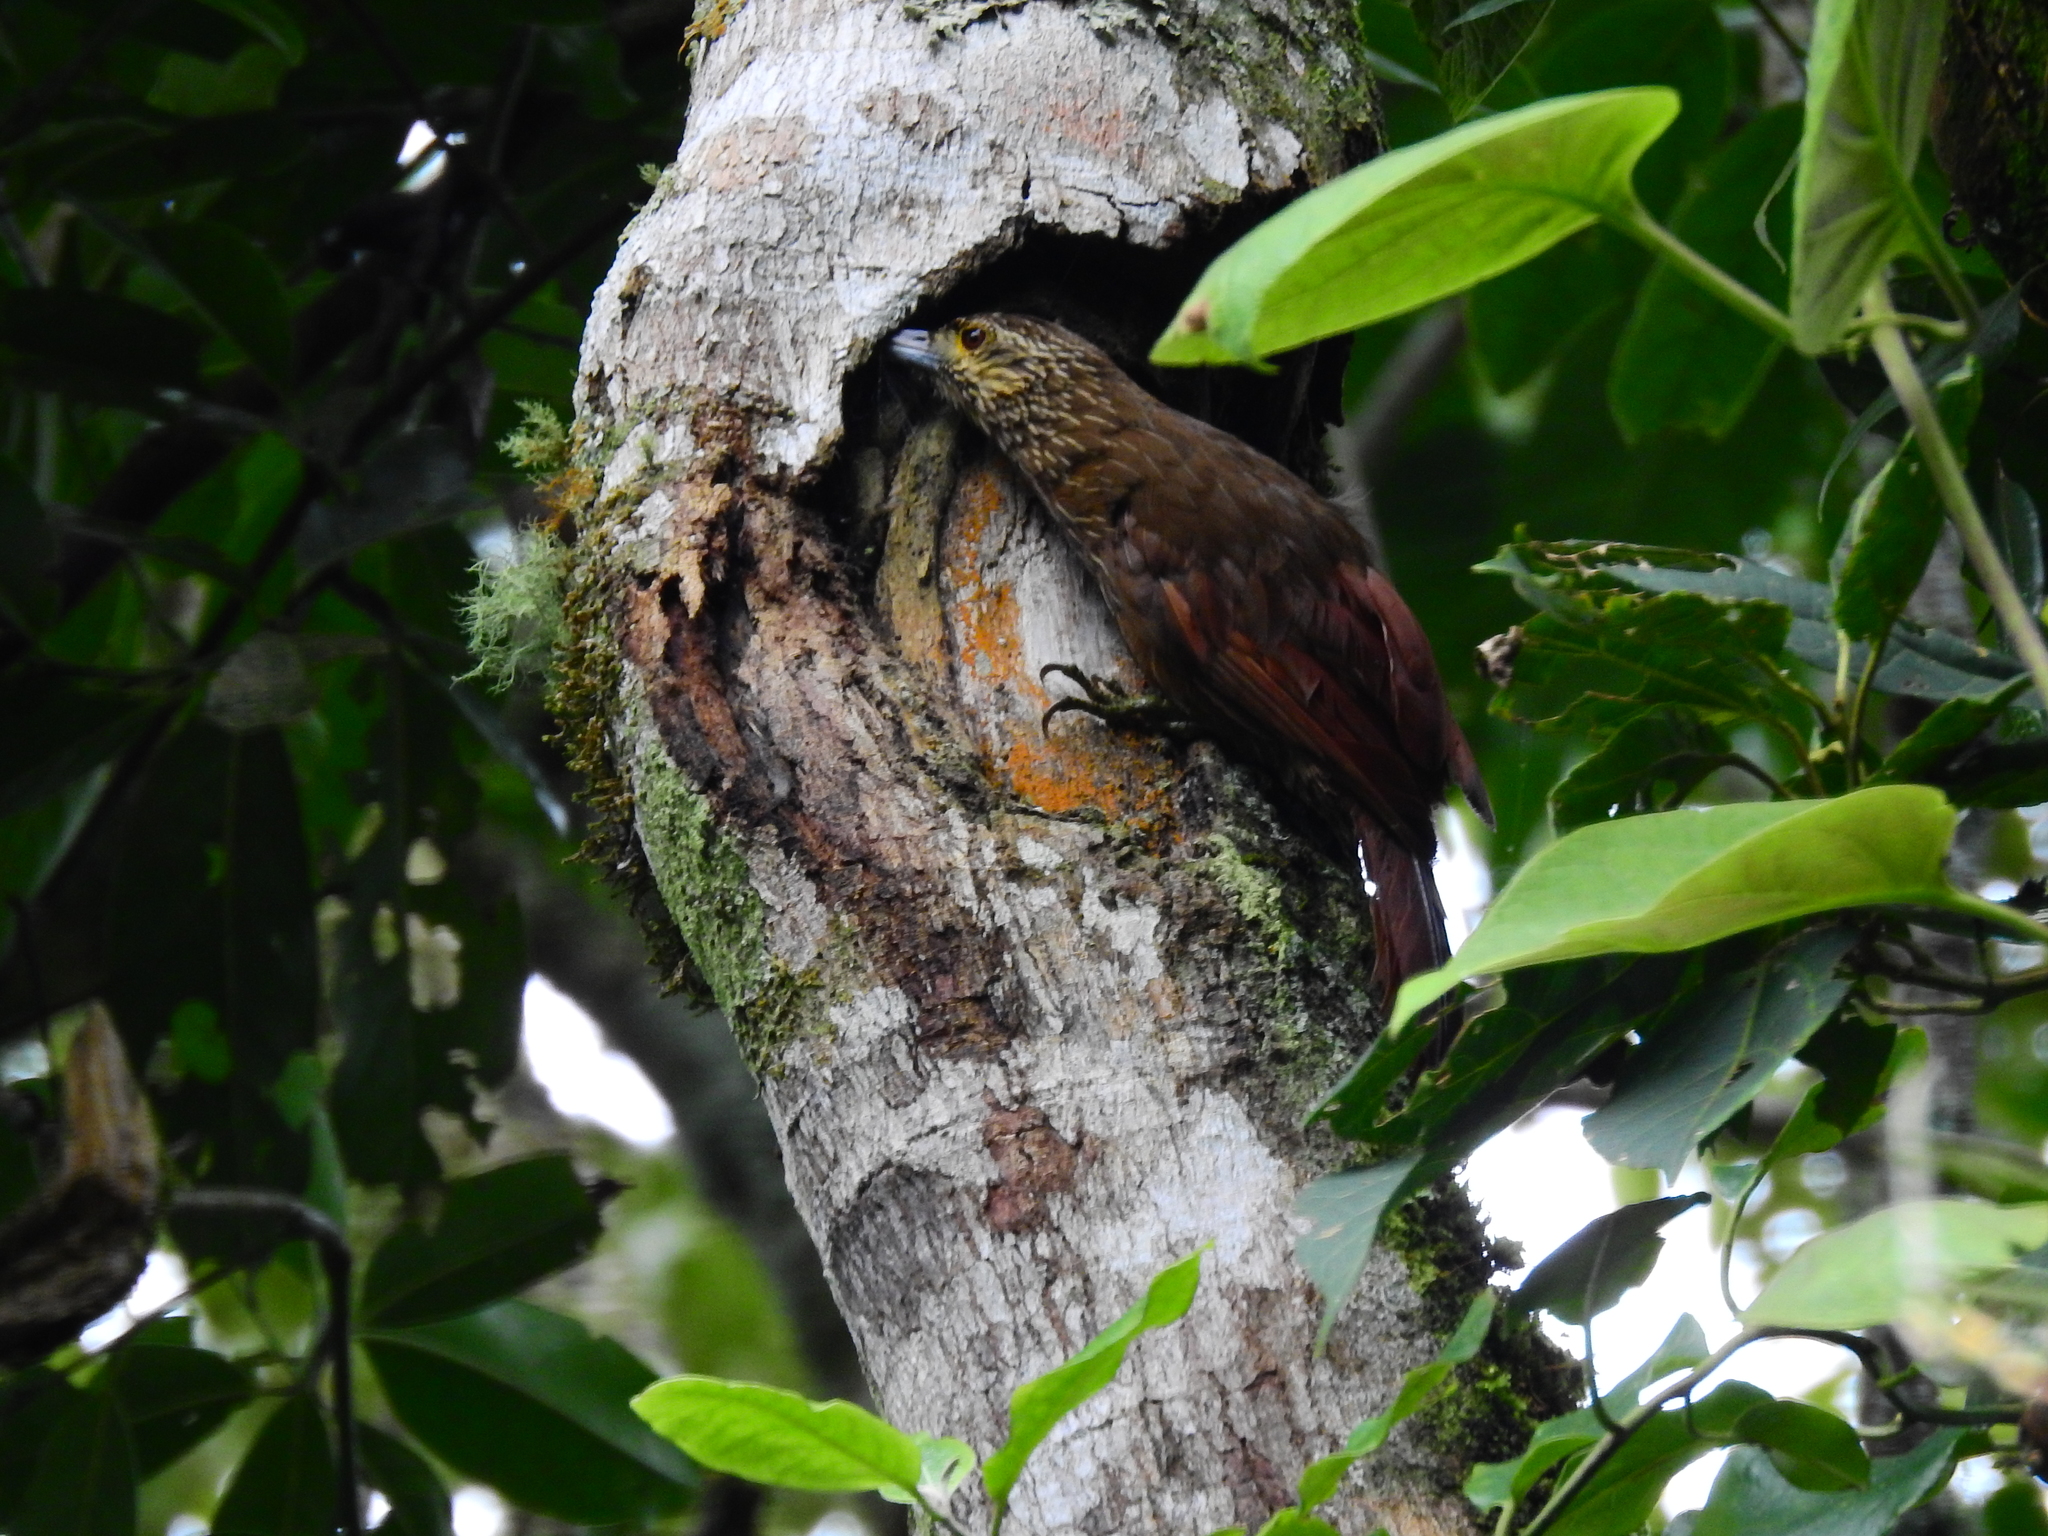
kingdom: Animalia
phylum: Chordata
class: Aves
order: Passeriformes
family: Furnariidae
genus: Xiphocolaptes
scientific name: Xiphocolaptes promeropirhynchus
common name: Strong-billed woodcreeper
